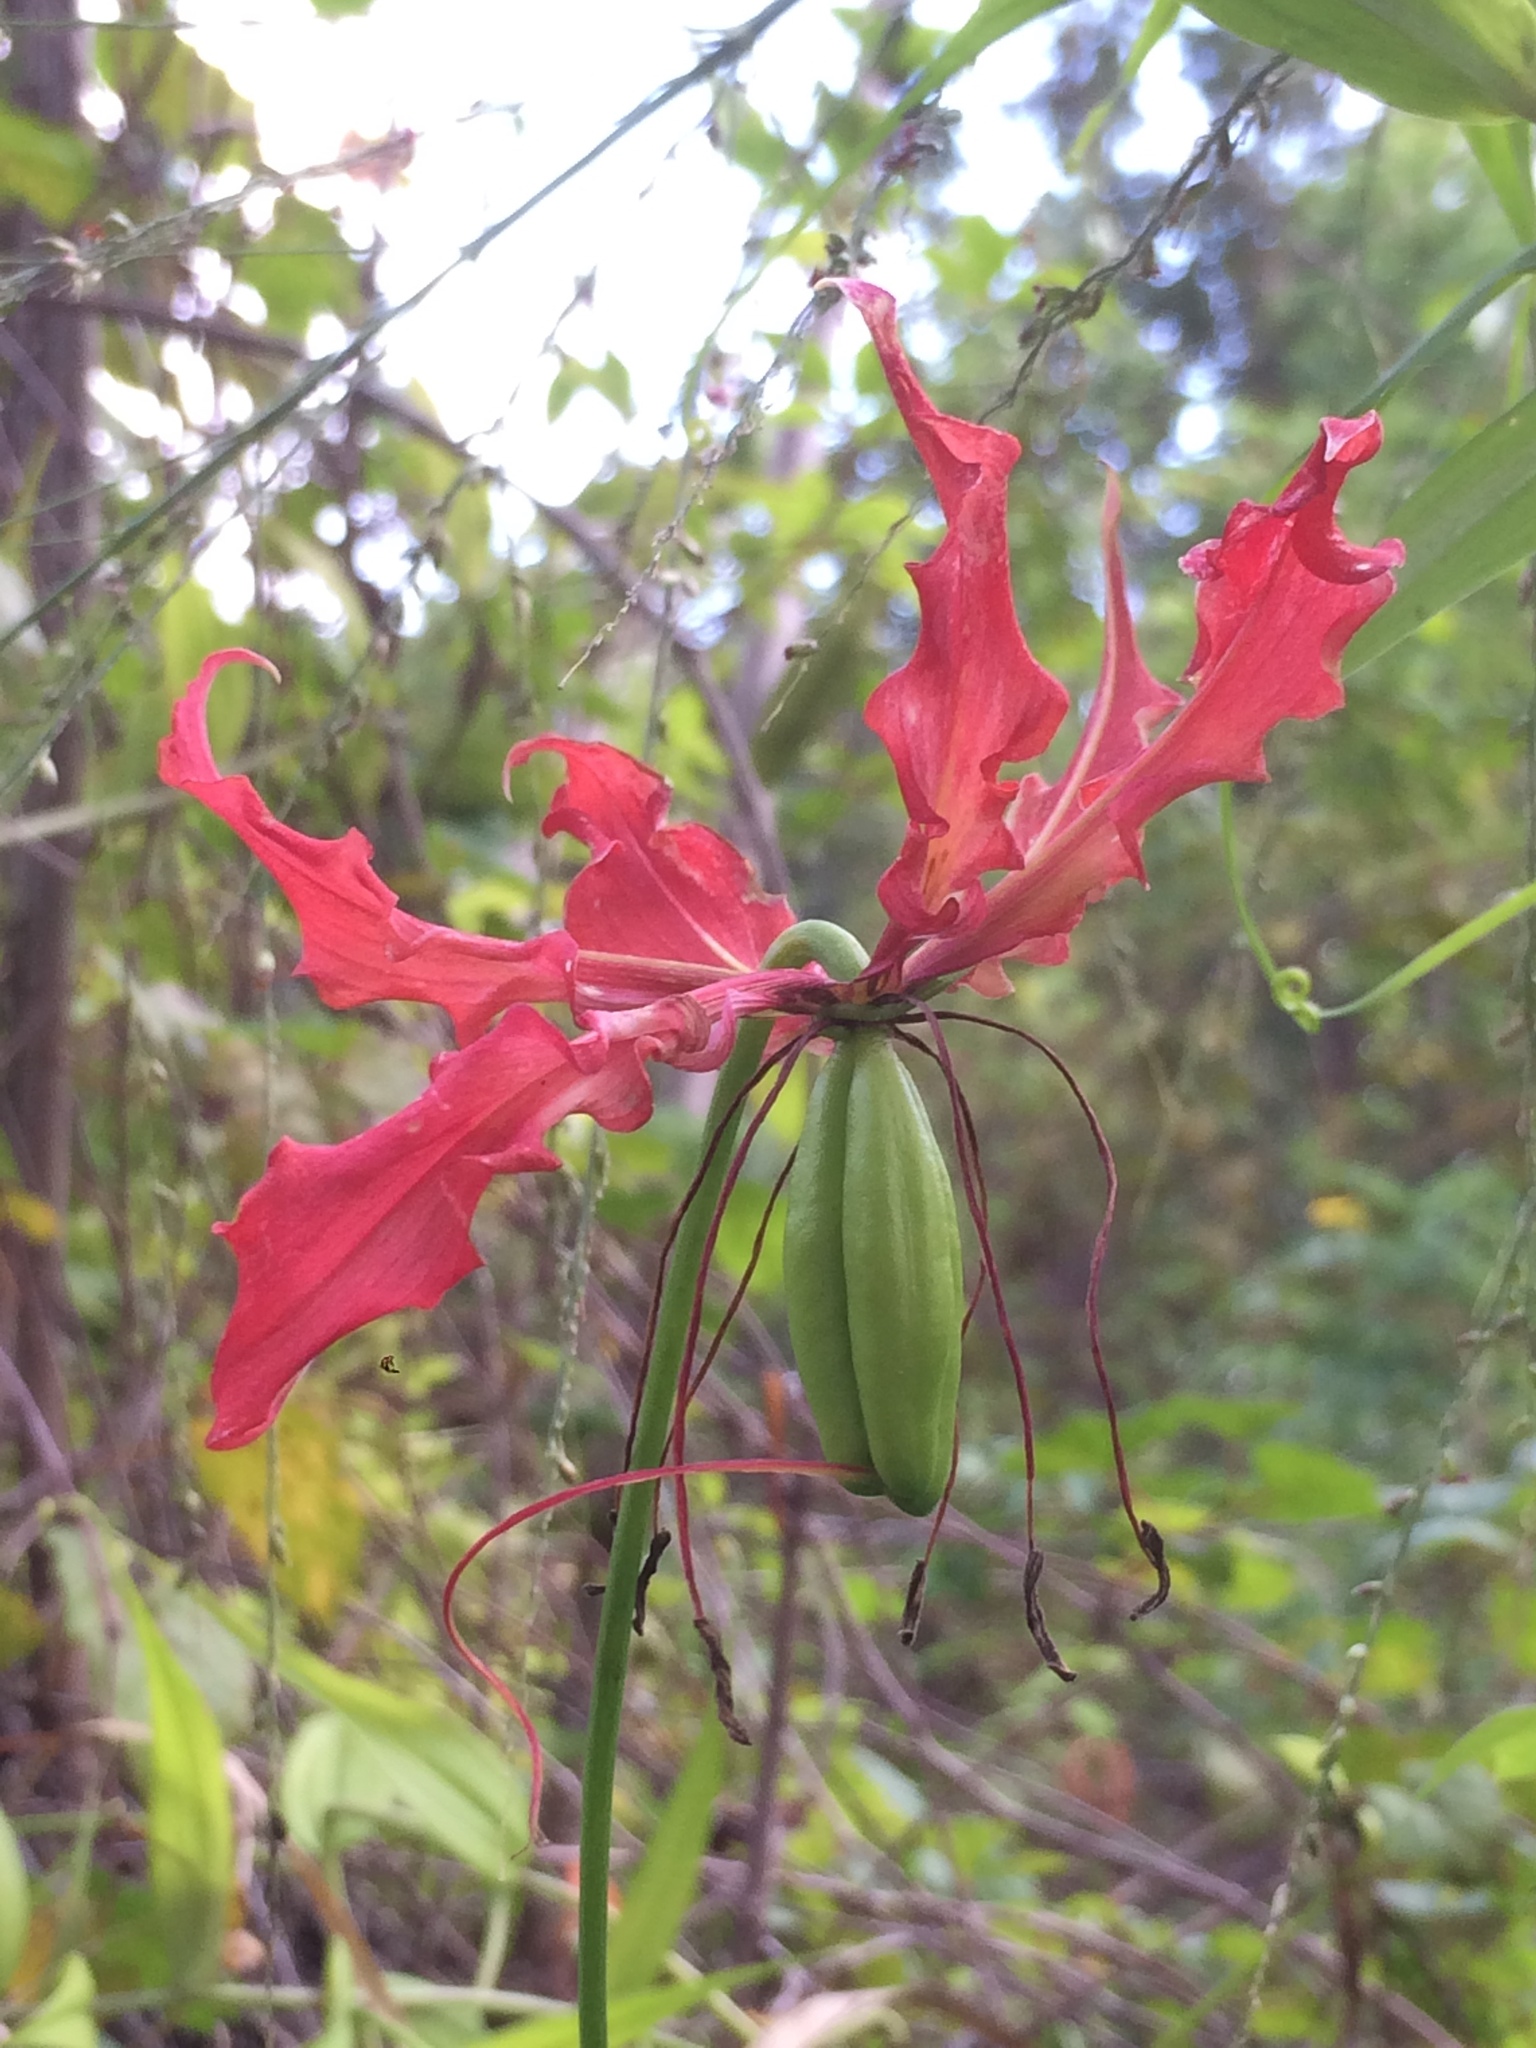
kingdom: Plantae
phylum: Tracheophyta
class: Liliopsida
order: Liliales
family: Colchicaceae
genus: Gloriosa
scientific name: Gloriosa superba
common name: Flame lily
